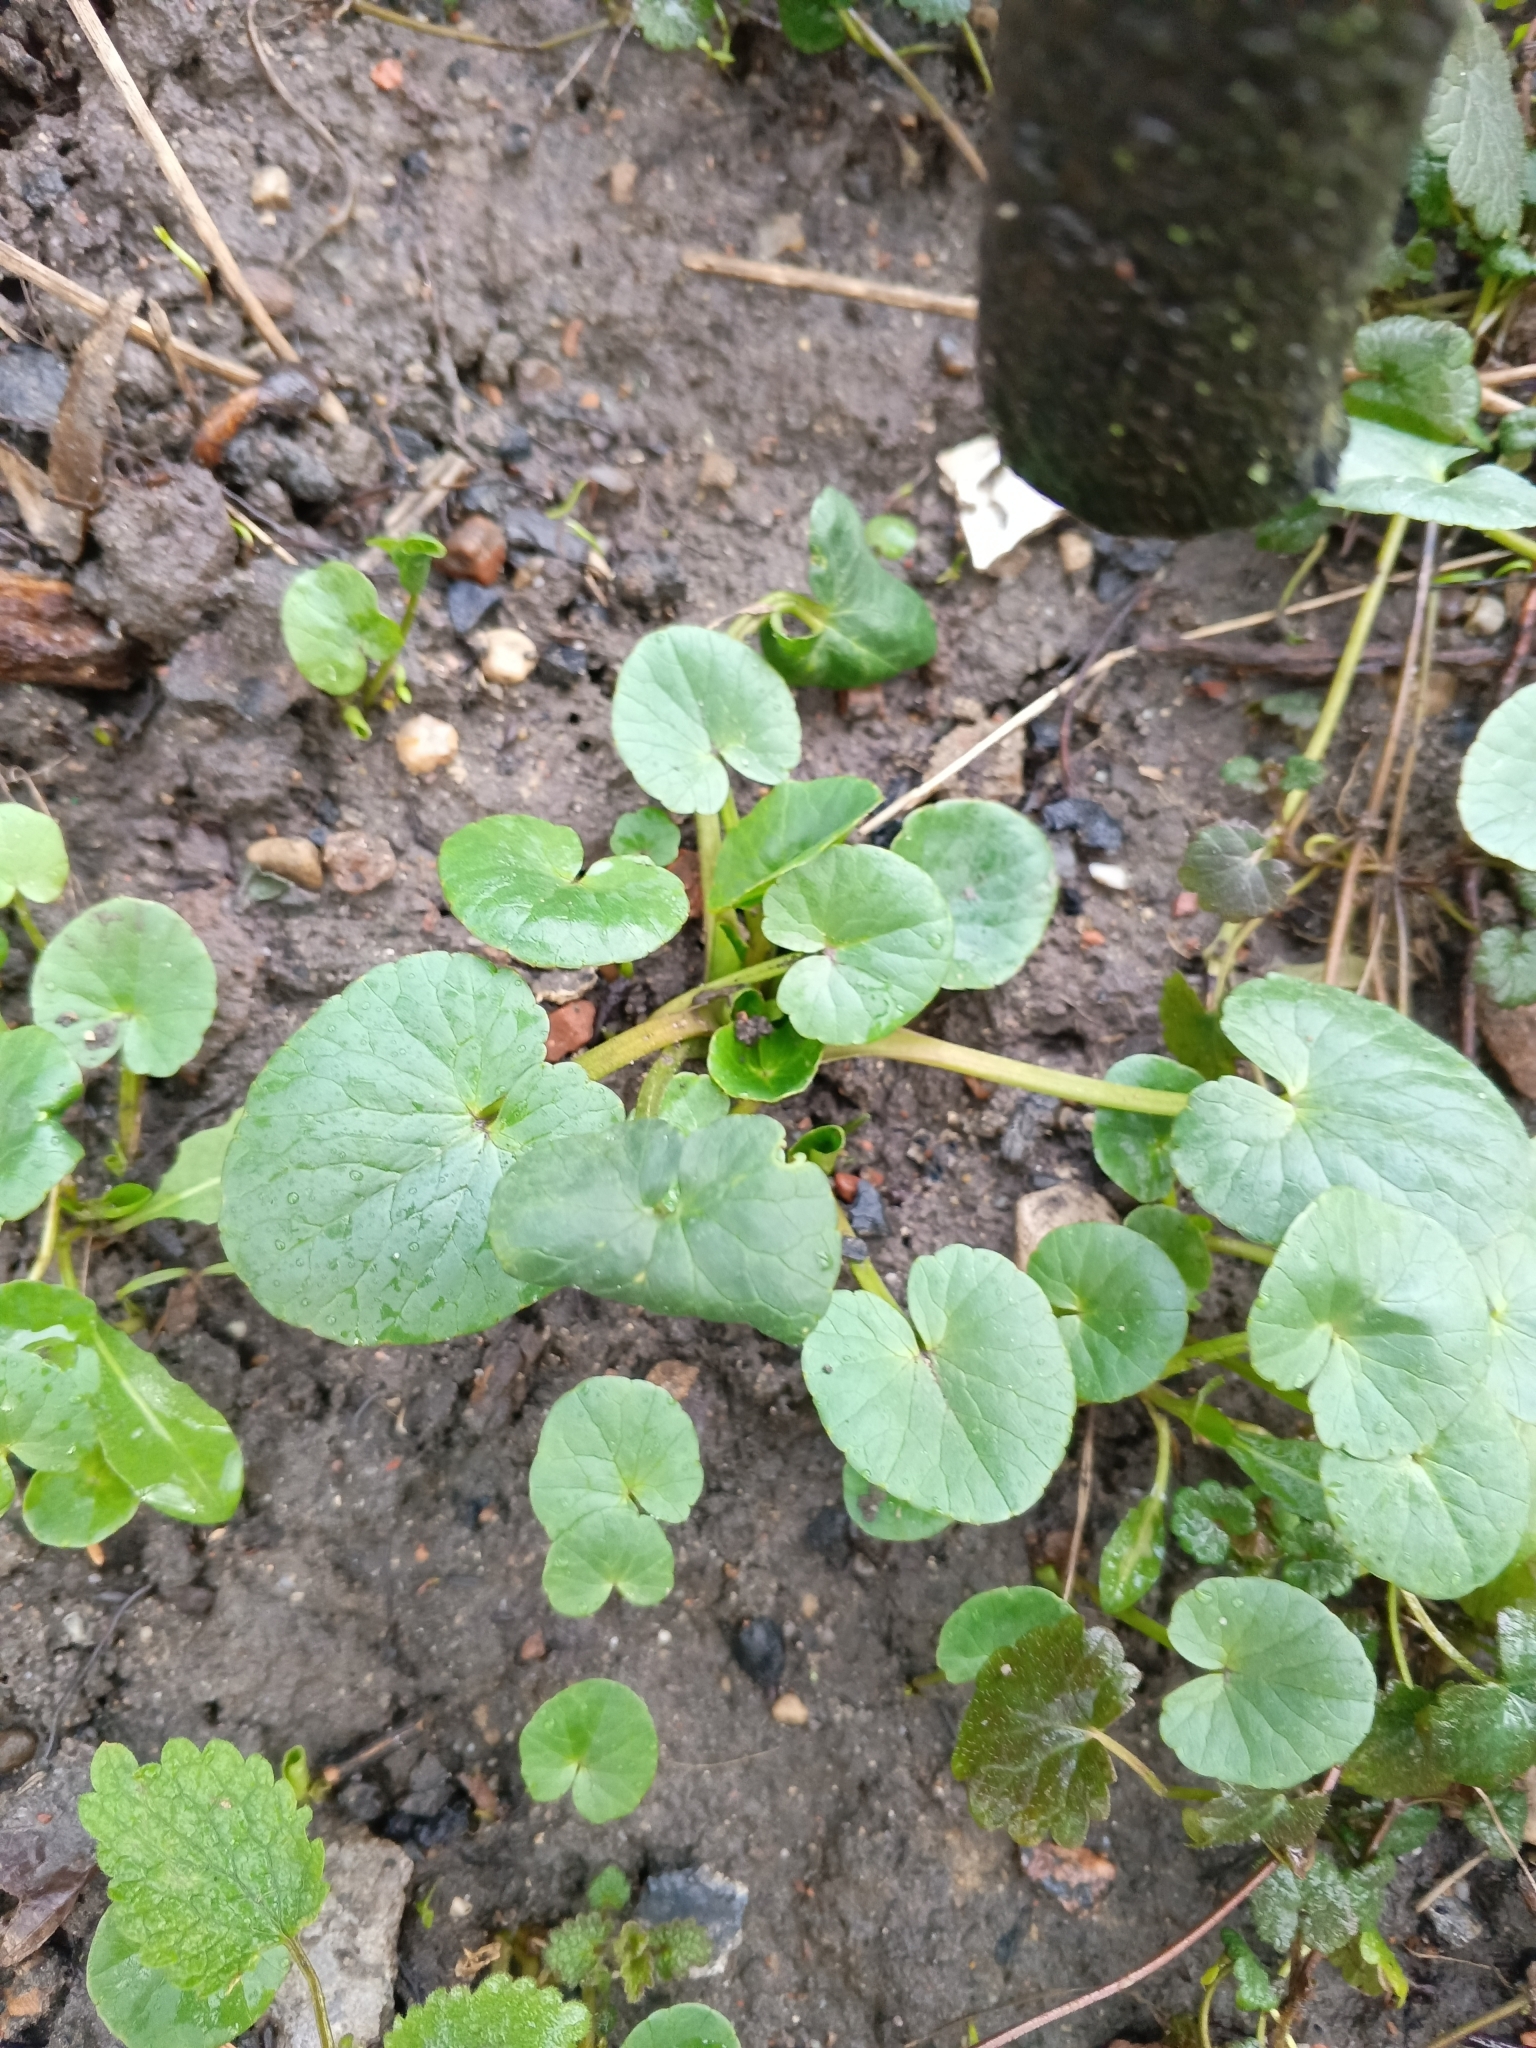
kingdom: Plantae
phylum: Tracheophyta
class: Magnoliopsida
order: Ranunculales
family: Ranunculaceae
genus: Ficaria
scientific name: Ficaria verna
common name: Lesser celandine
